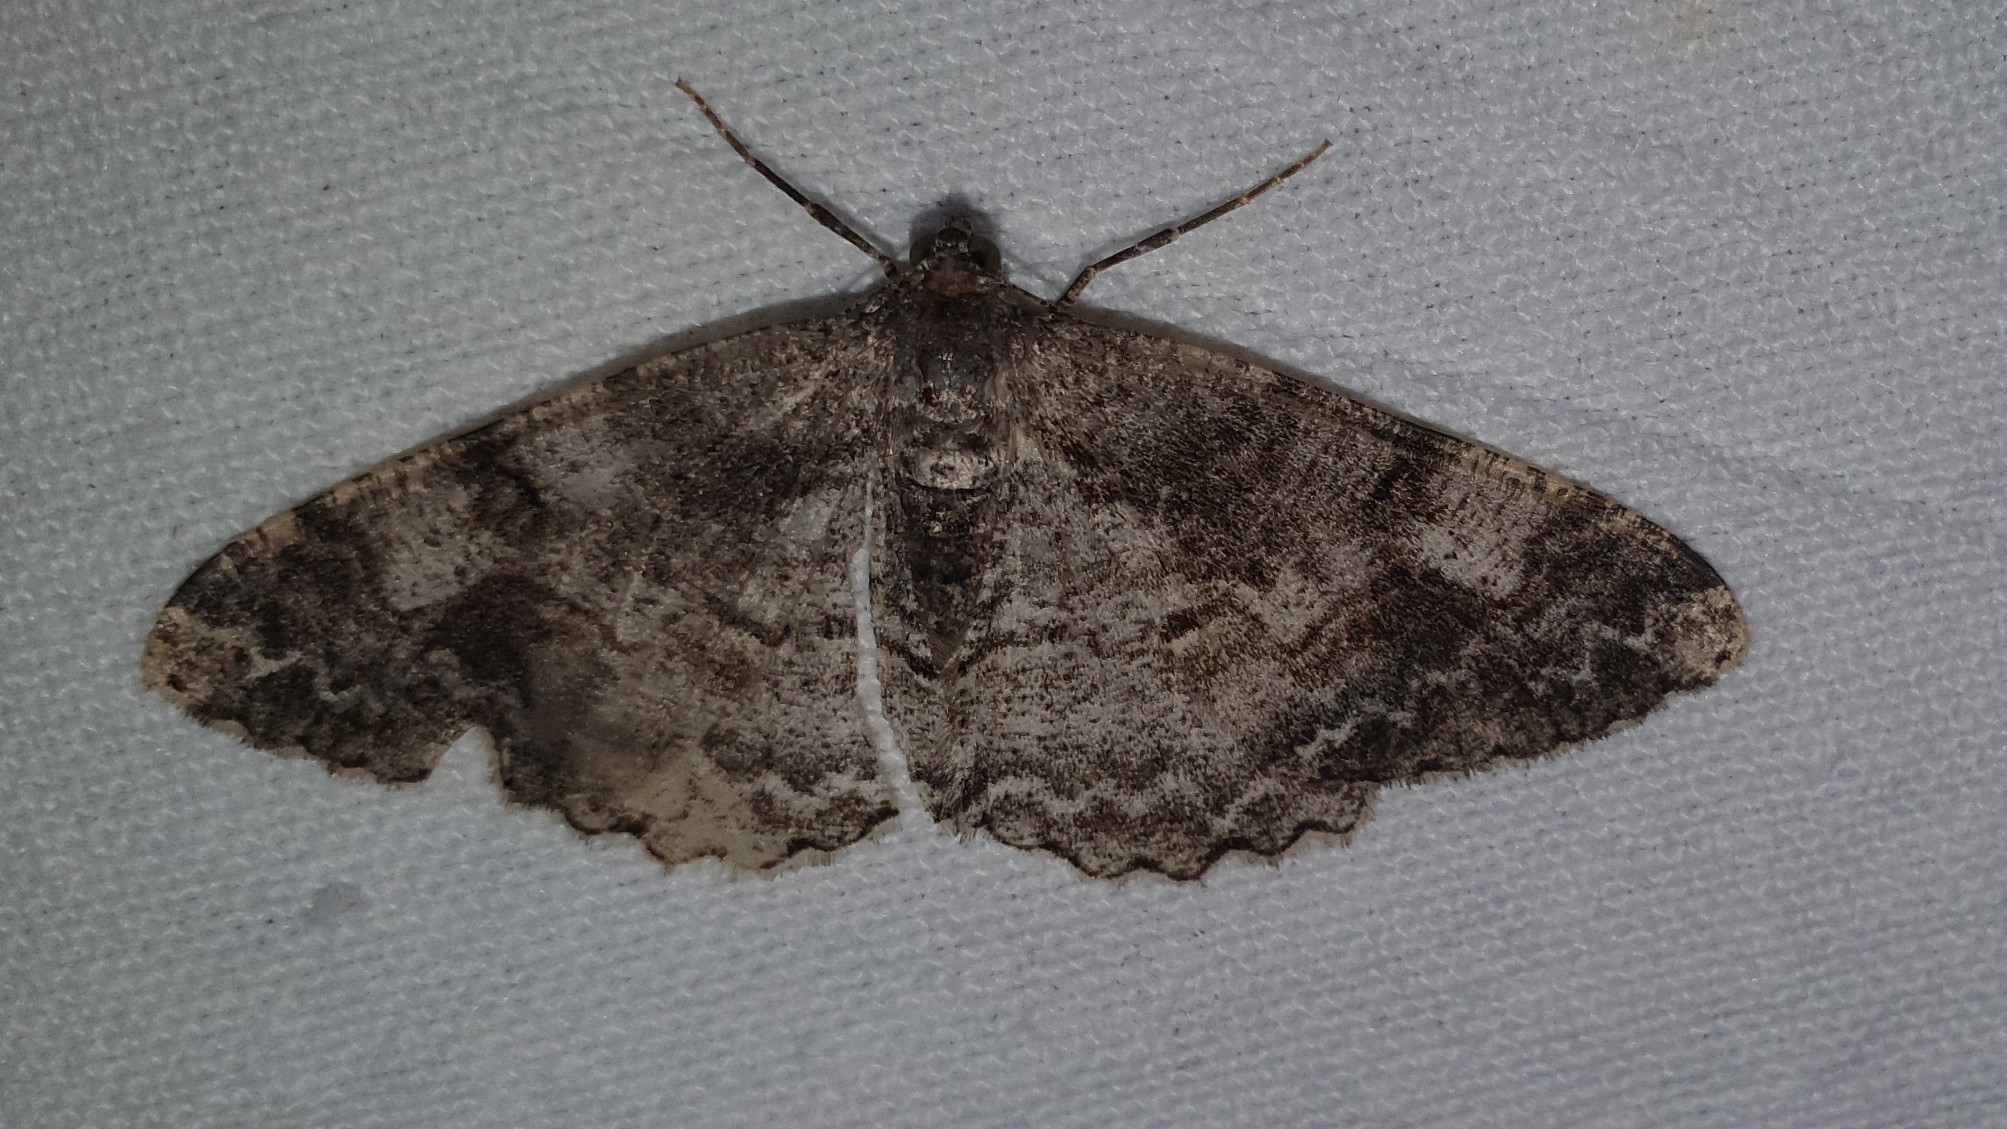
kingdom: Animalia
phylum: Arthropoda
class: Insecta
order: Lepidoptera
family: Geometridae
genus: Alcis
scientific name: Alcis repandata
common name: Mottled beauty
